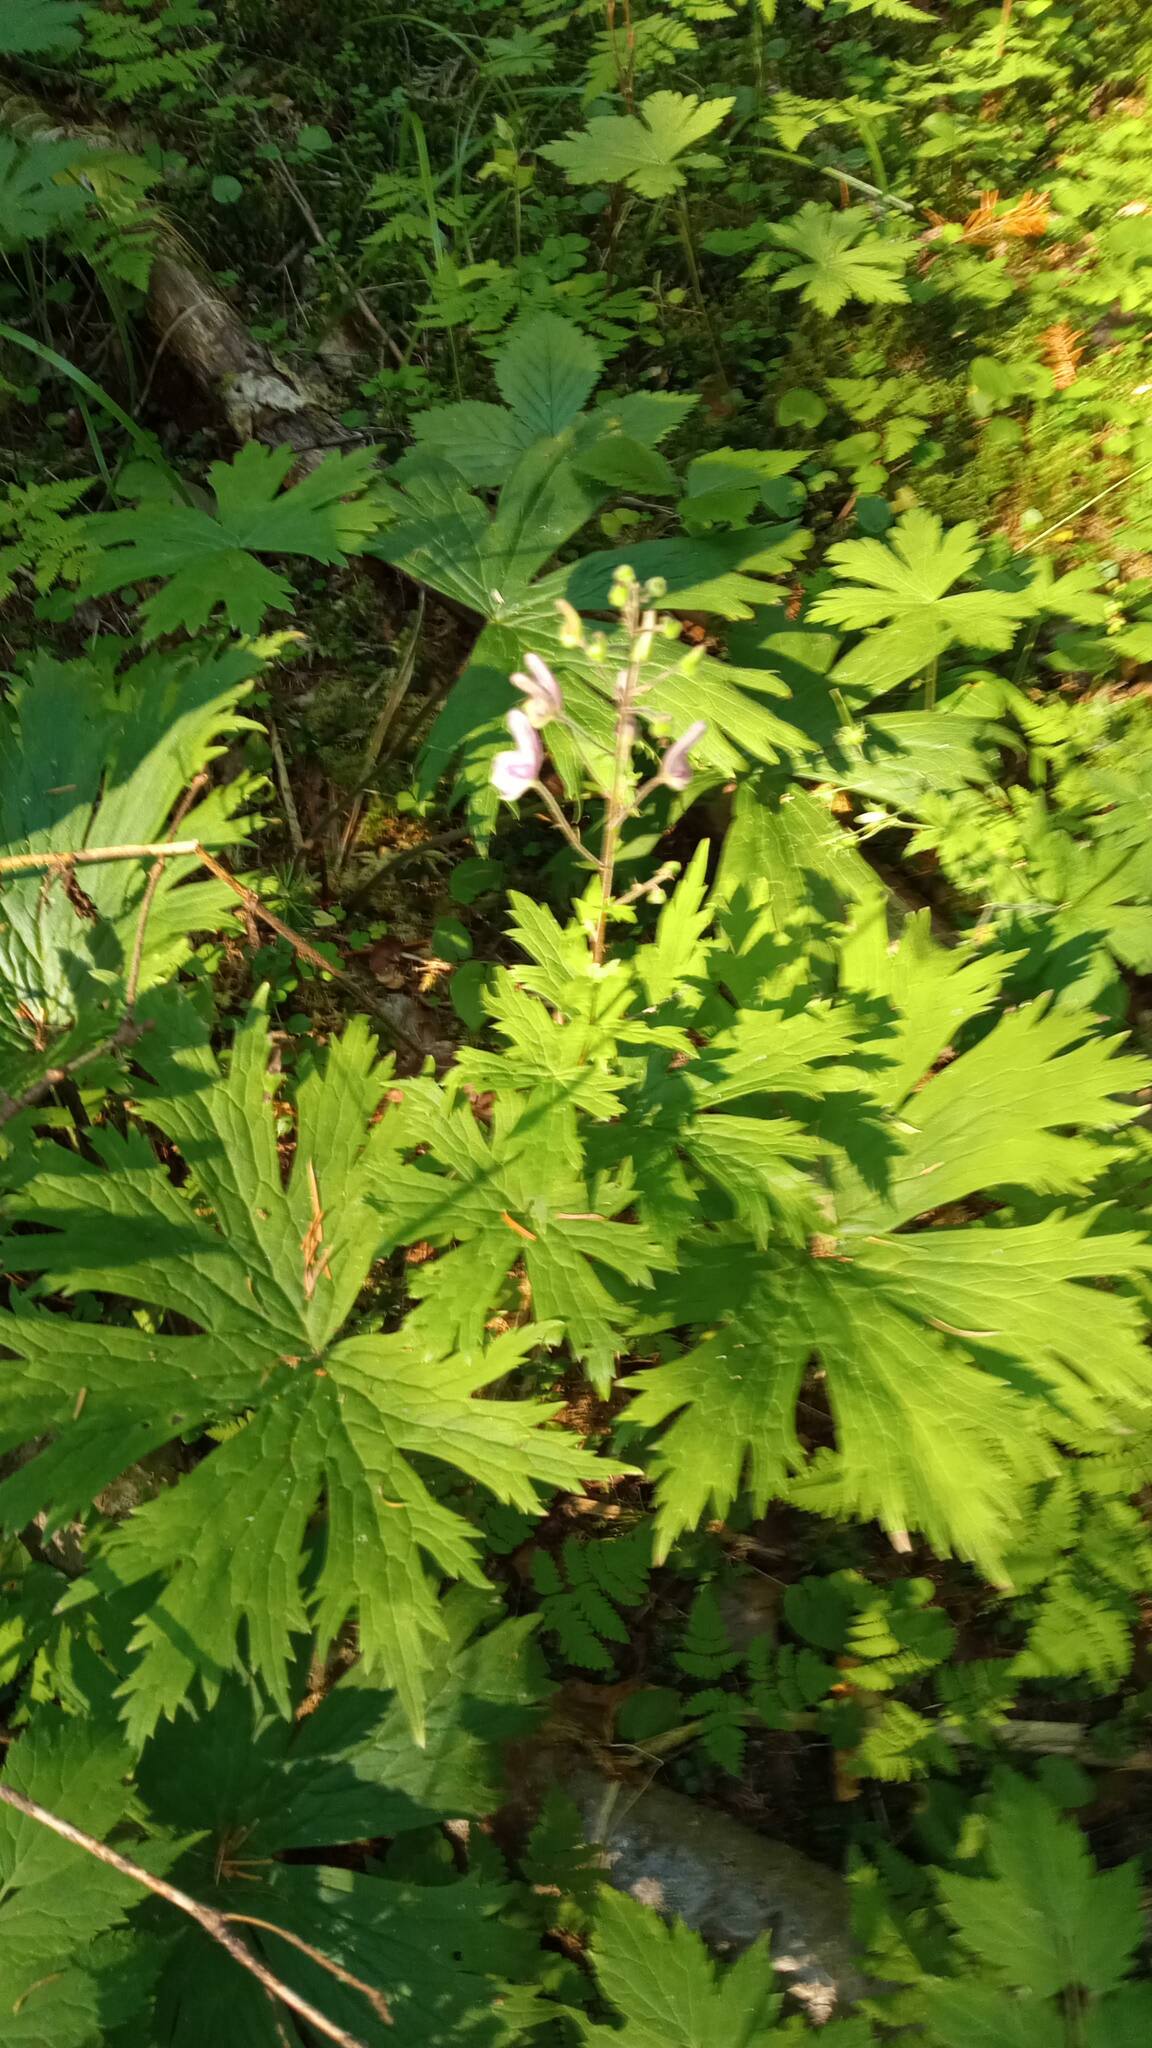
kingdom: Plantae
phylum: Tracheophyta
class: Magnoliopsida
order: Ranunculales
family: Ranunculaceae
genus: Aconitum
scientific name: Aconitum septentrionale
